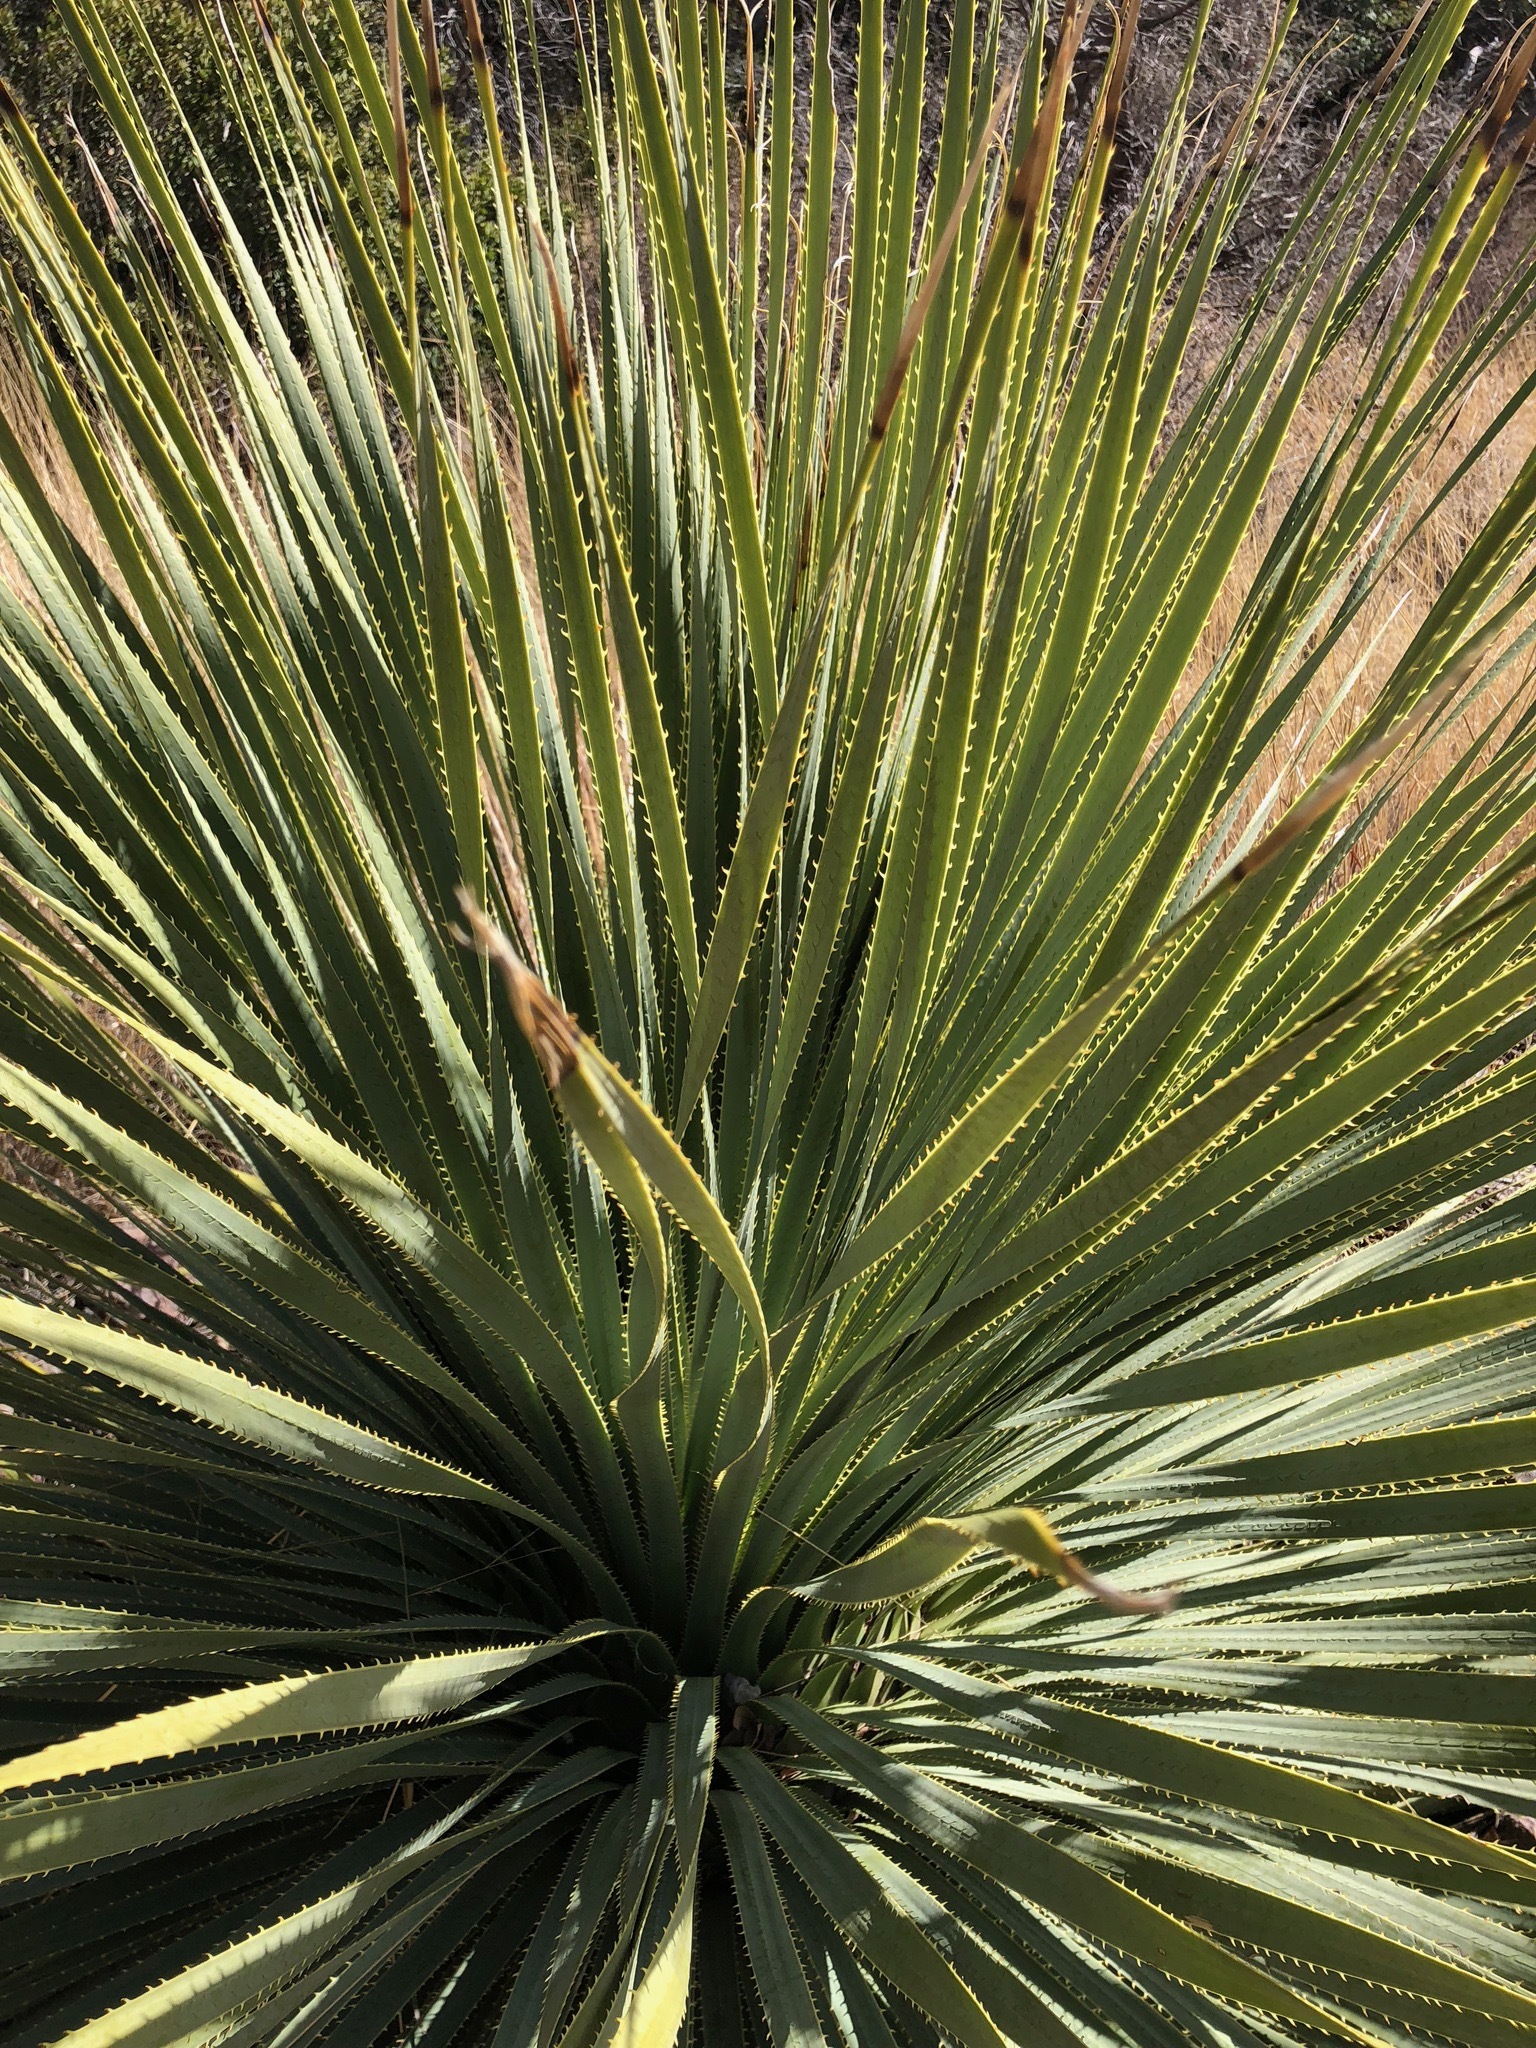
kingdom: Plantae
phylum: Tracheophyta
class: Liliopsida
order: Asparagales
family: Asparagaceae
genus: Dasylirion
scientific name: Dasylirion wheeleri
